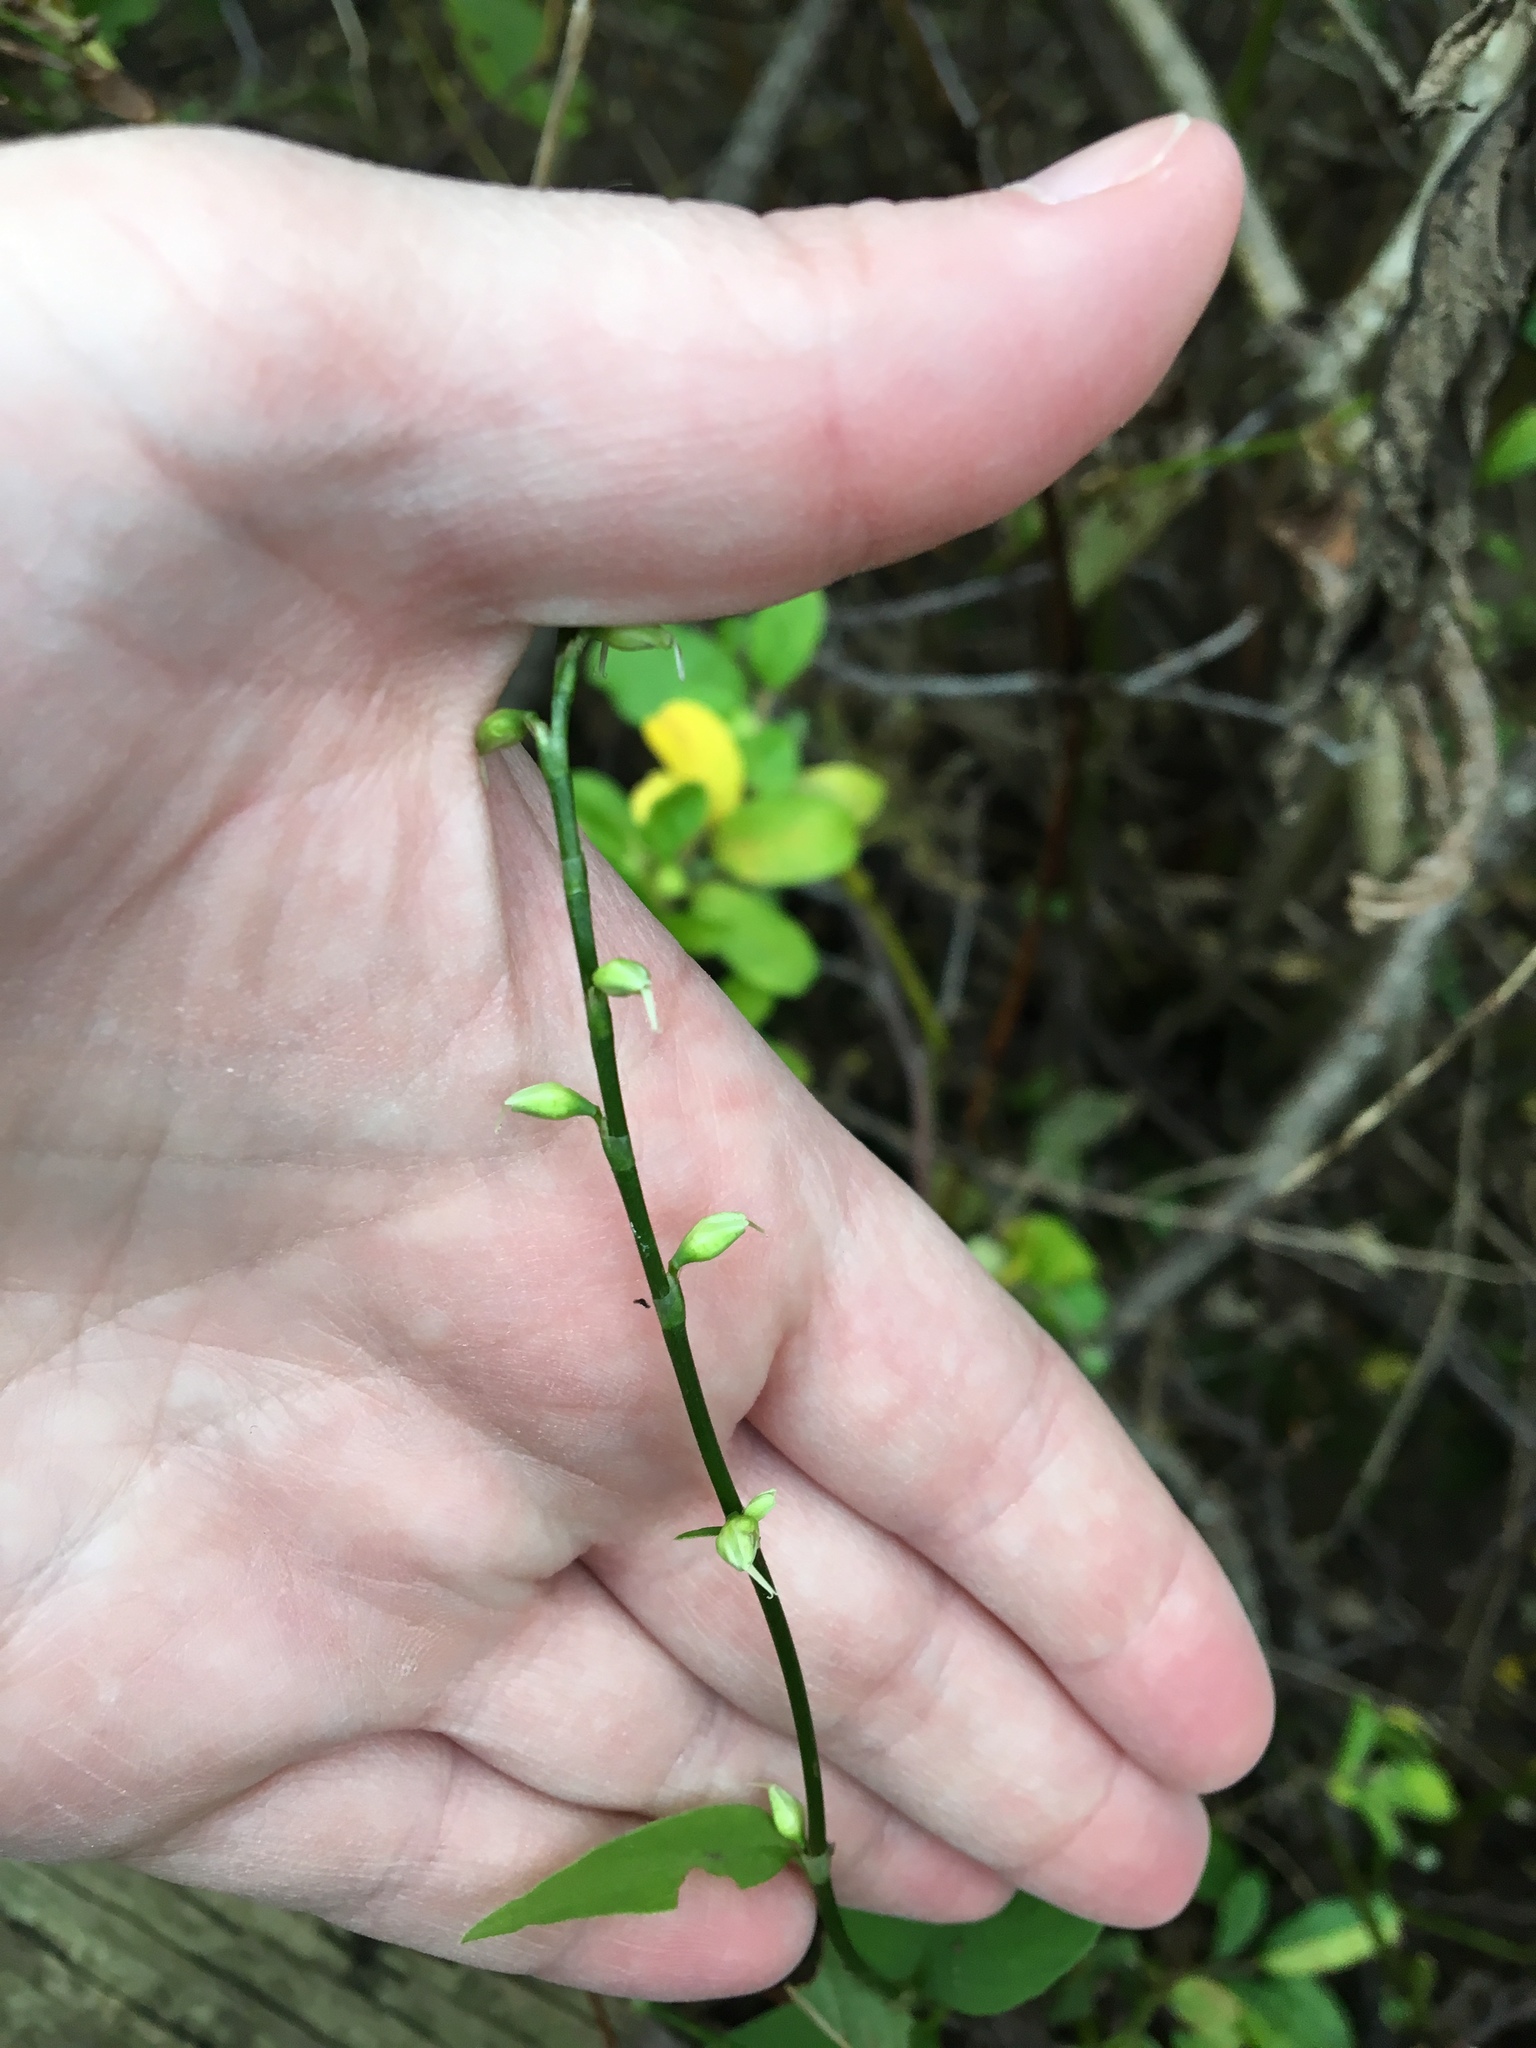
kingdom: Plantae
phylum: Tracheophyta
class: Magnoliopsida
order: Caryophyllales
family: Polygonaceae
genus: Persicaria
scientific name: Persicaria virginiana
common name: Jumpseed
